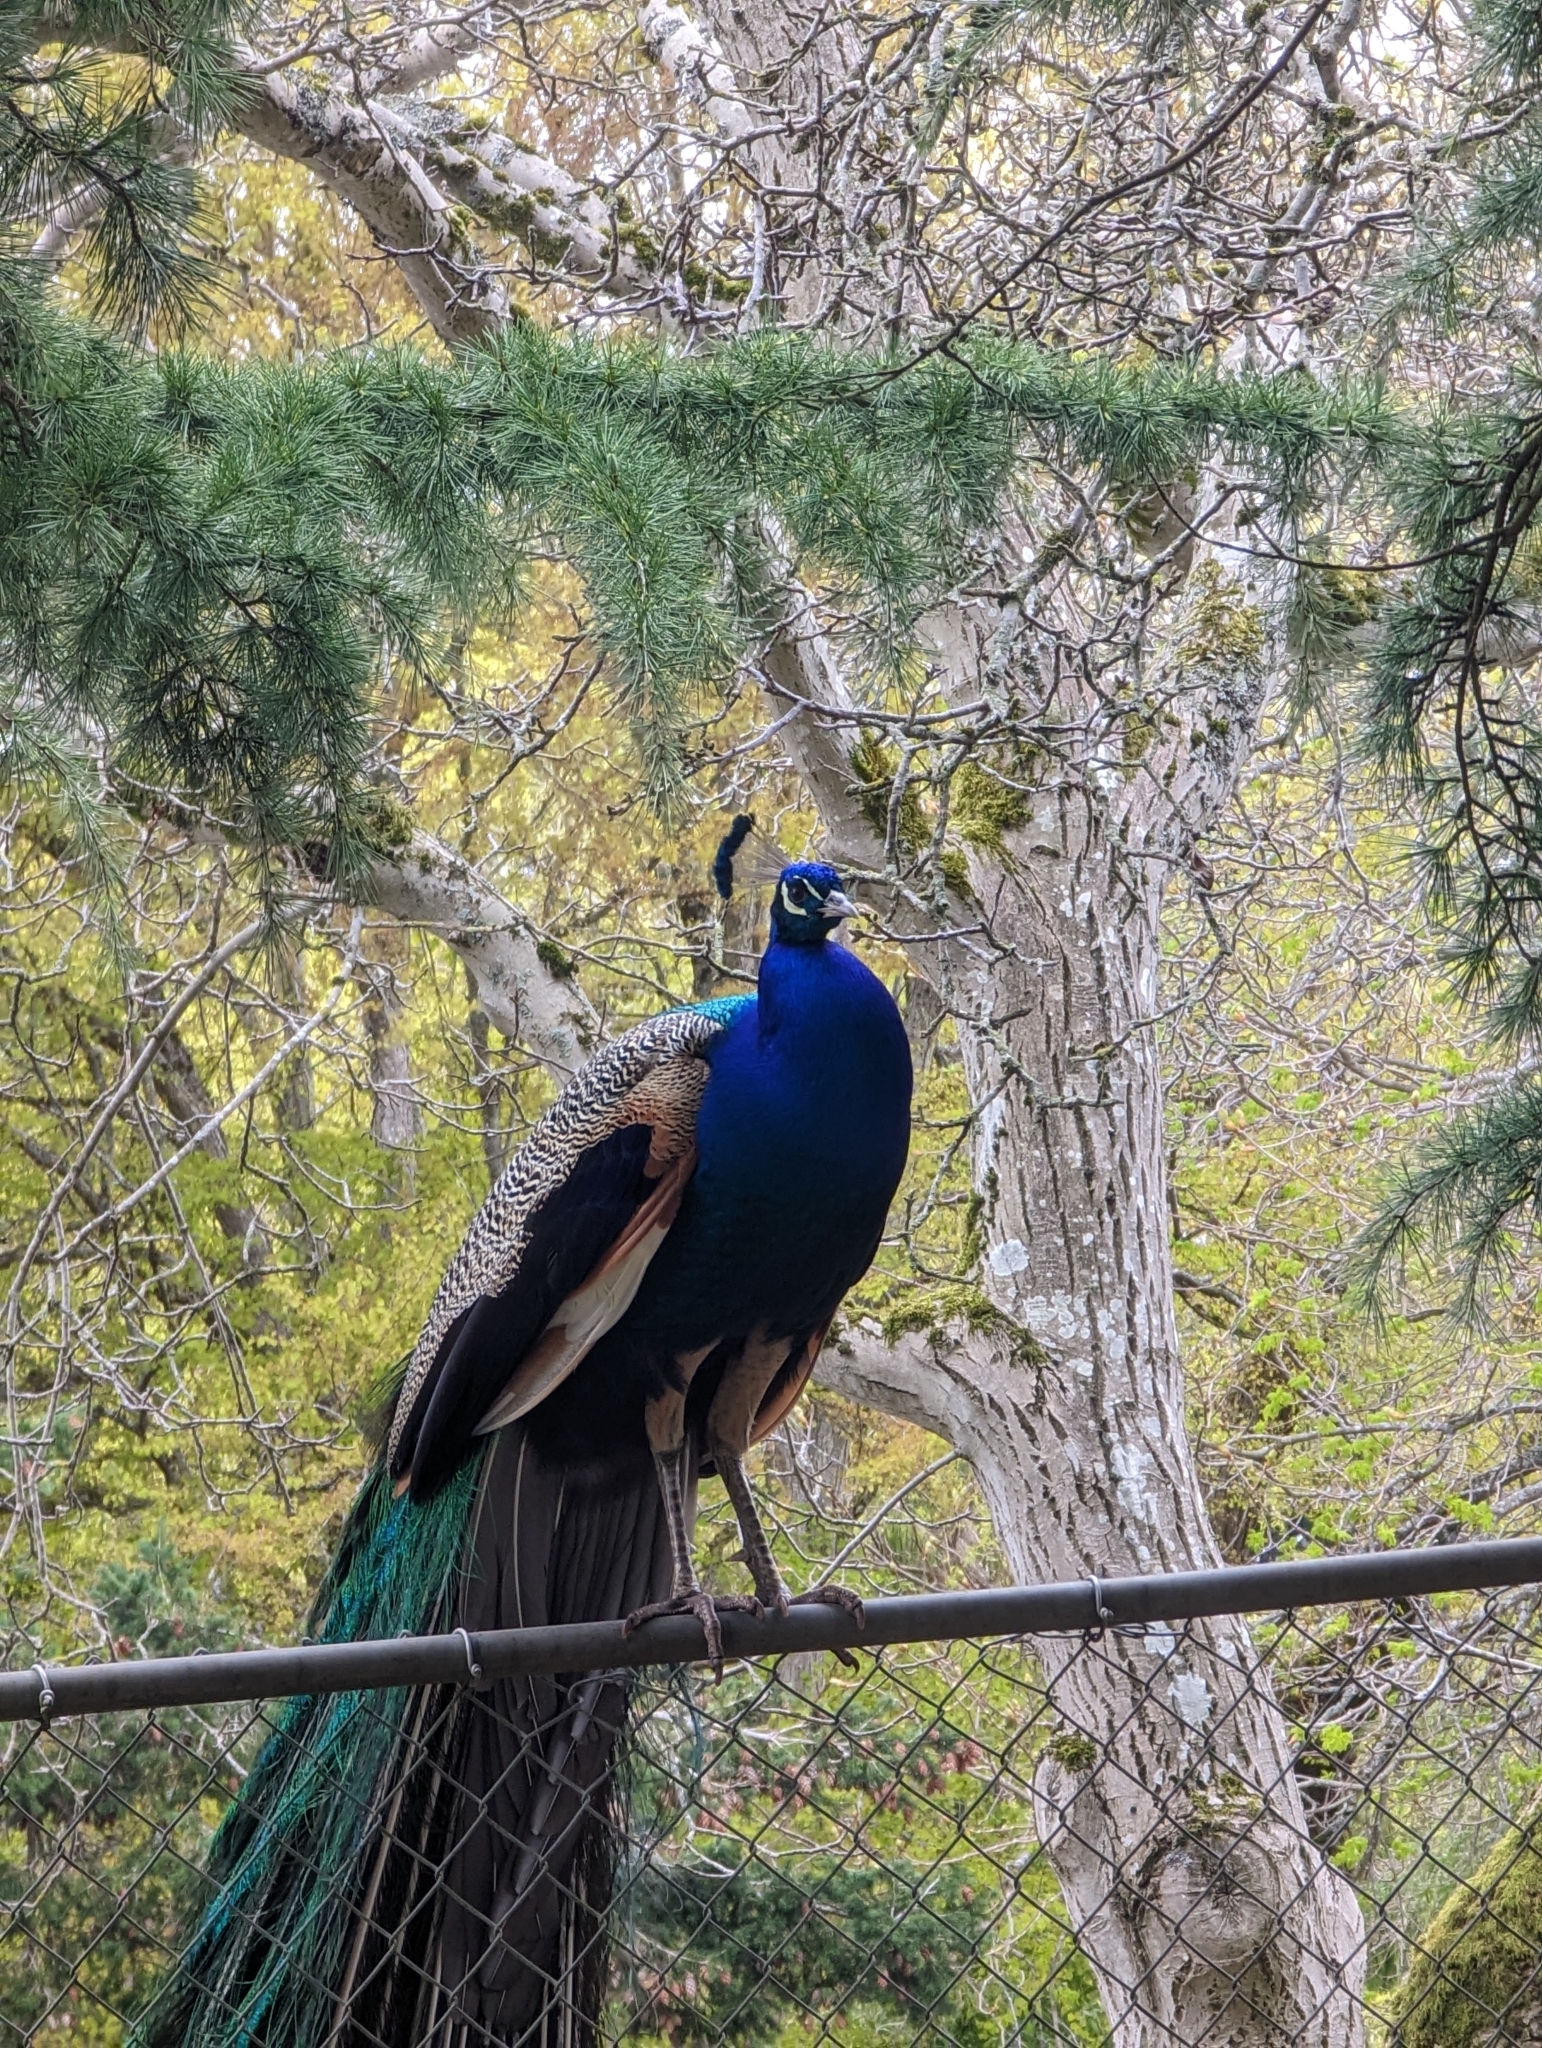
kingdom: Animalia
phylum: Chordata
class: Aves
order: Galliformes
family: Phasianidae
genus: Pavo
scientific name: Pavo cristatus
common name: Indian peafowl
